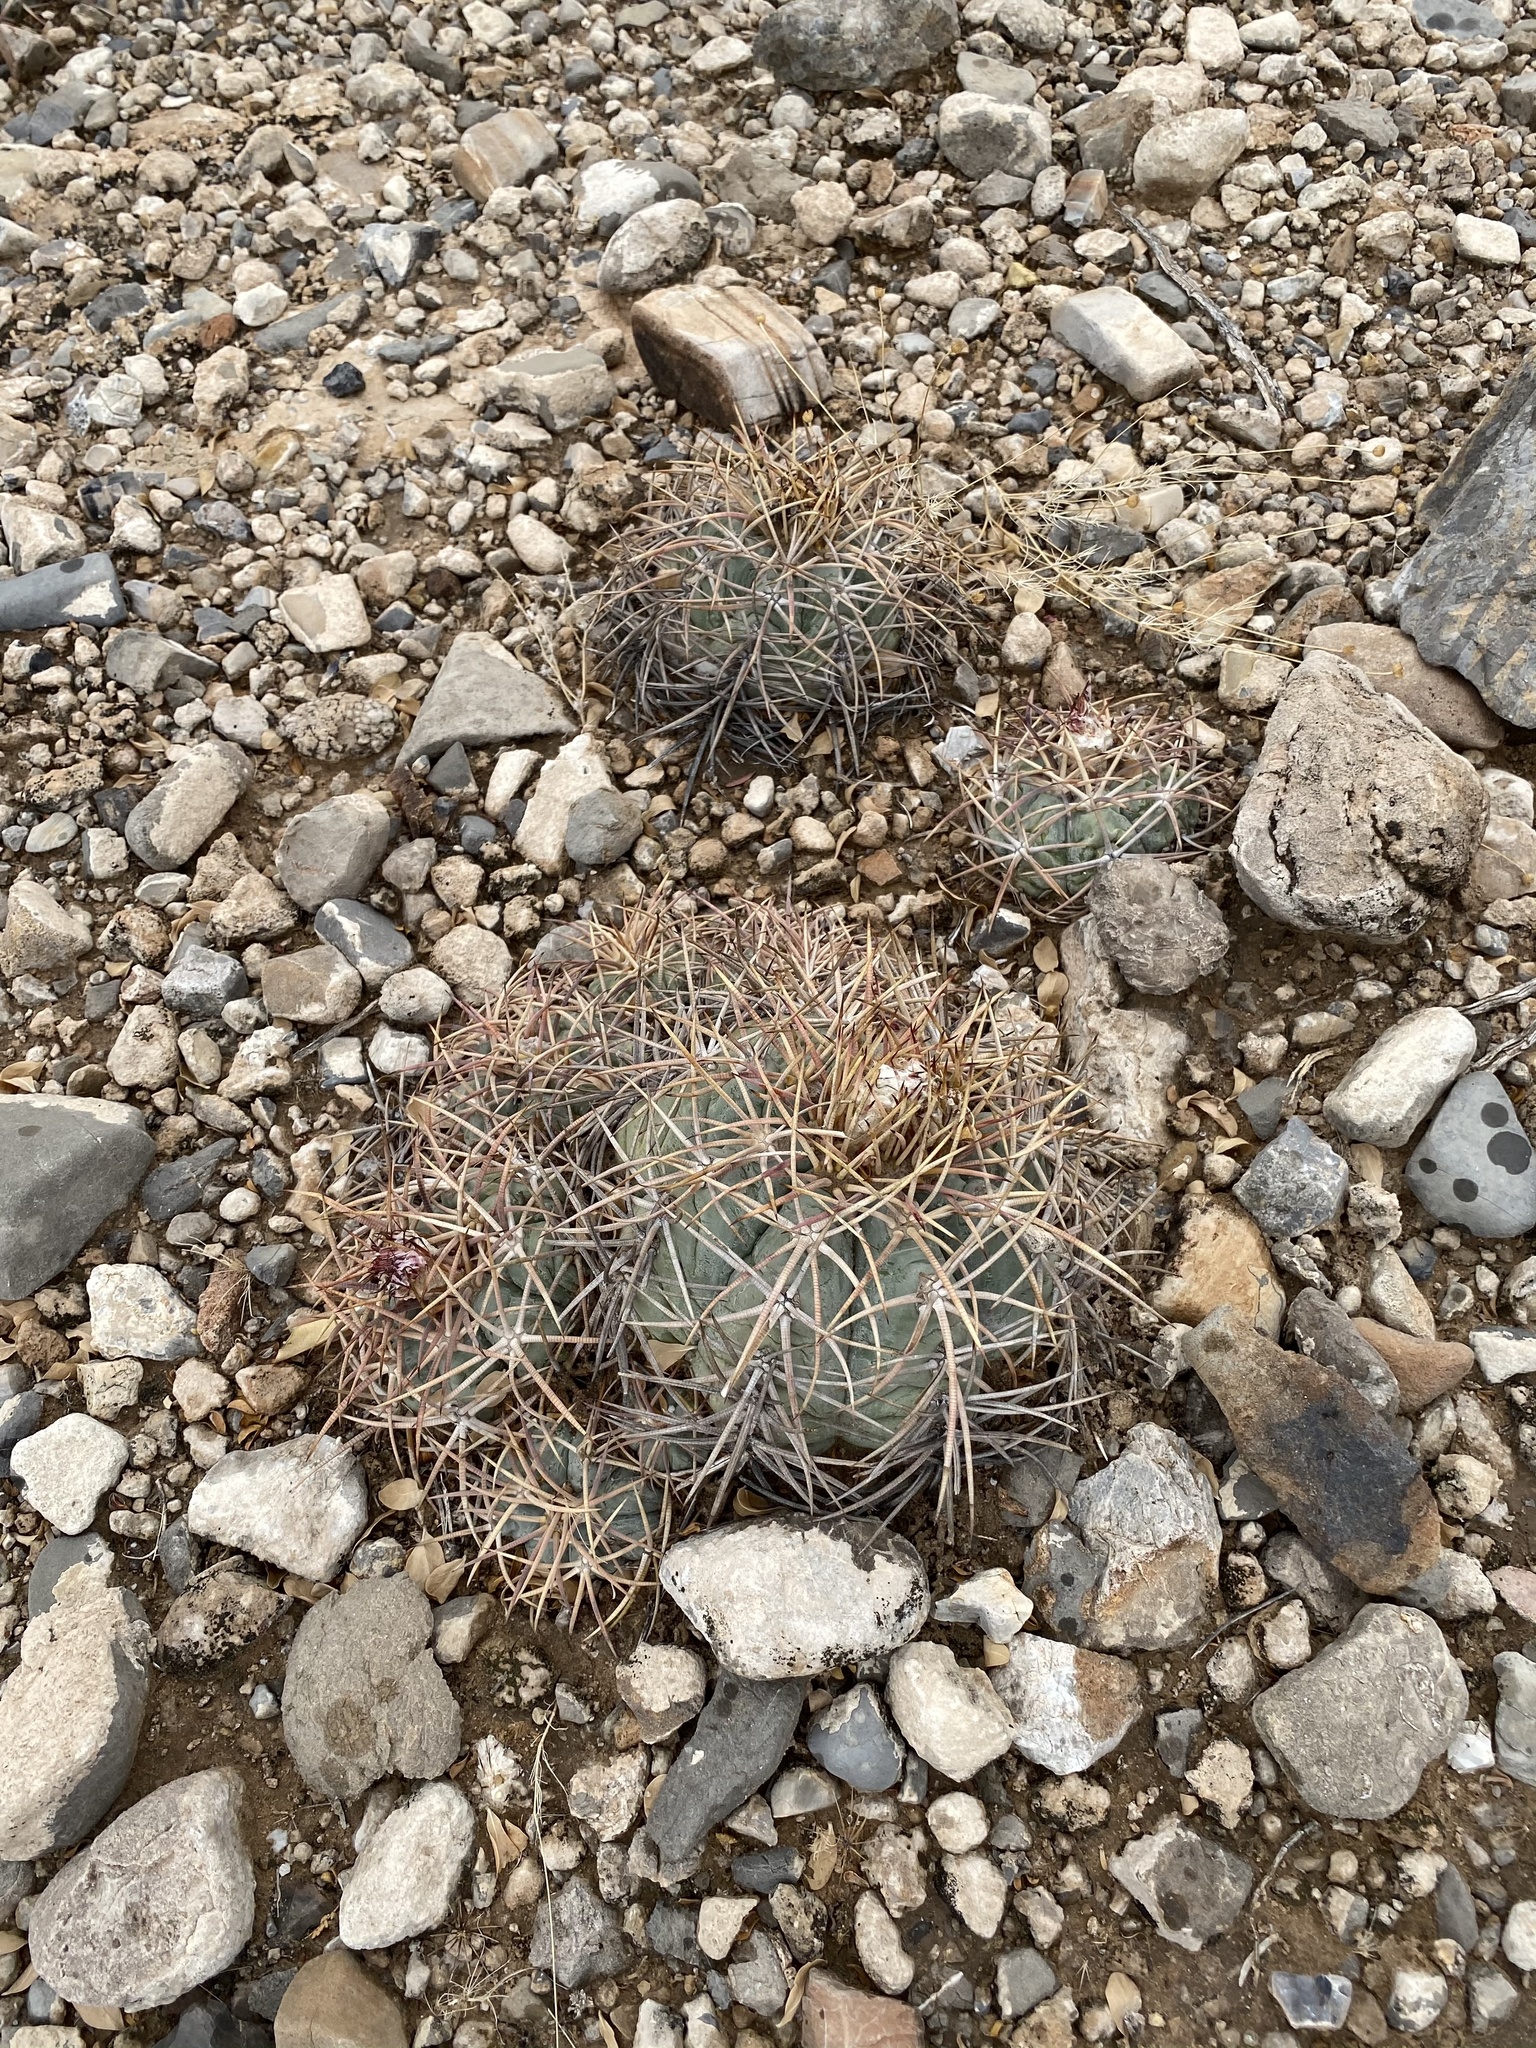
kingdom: Plantae
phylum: Tracheophyta
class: Magnoliopsida
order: Caryophyllales
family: Cactaceae
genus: Echinocactus
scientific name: Echinocactus horizonthalonius
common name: Devilshead
